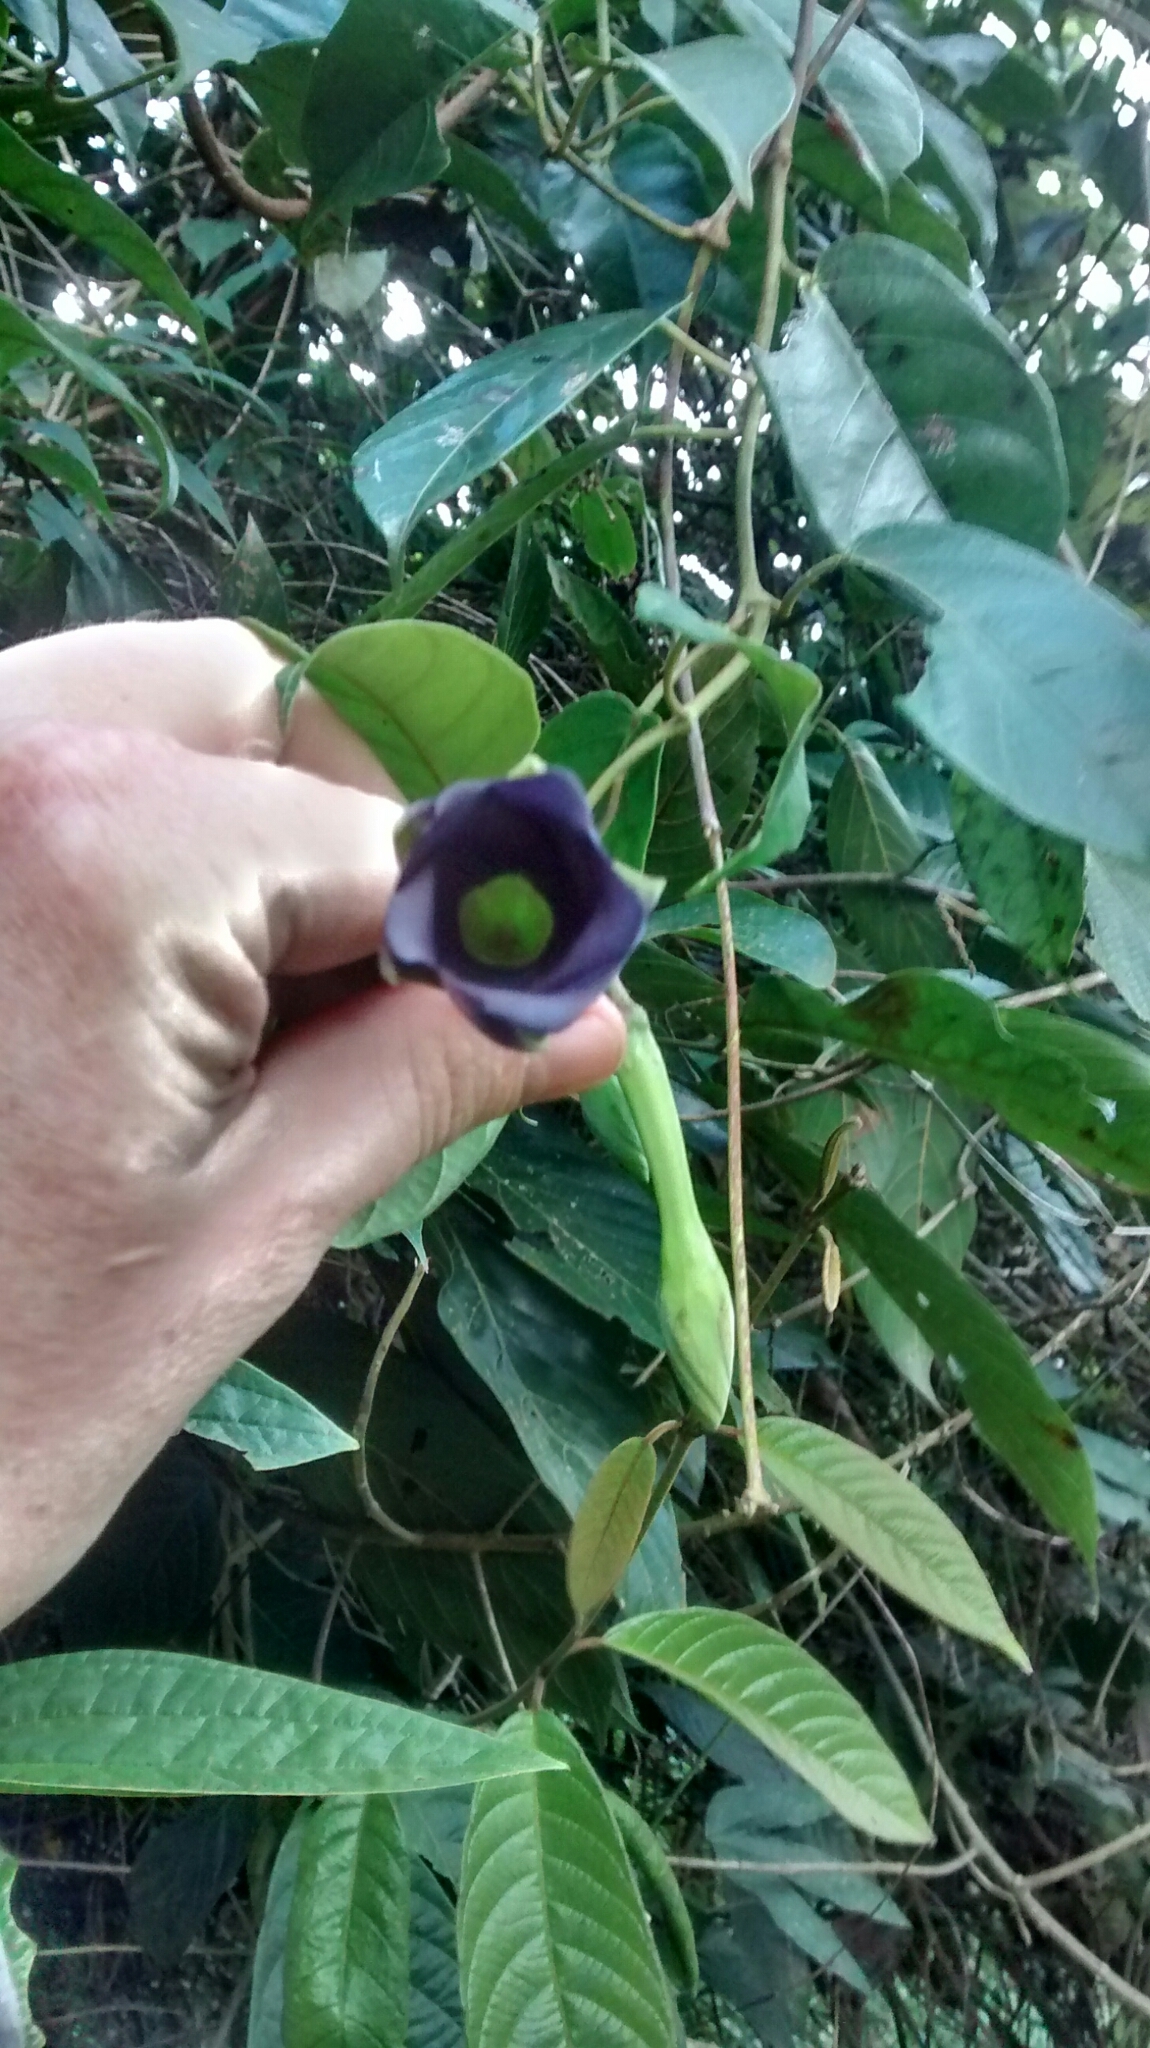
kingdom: Plantae
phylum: Tracheophyta
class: Magnoliopsida
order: Gentianales
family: Apocynaceae
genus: Mandevilla
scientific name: Mandevilla veraguasensis
